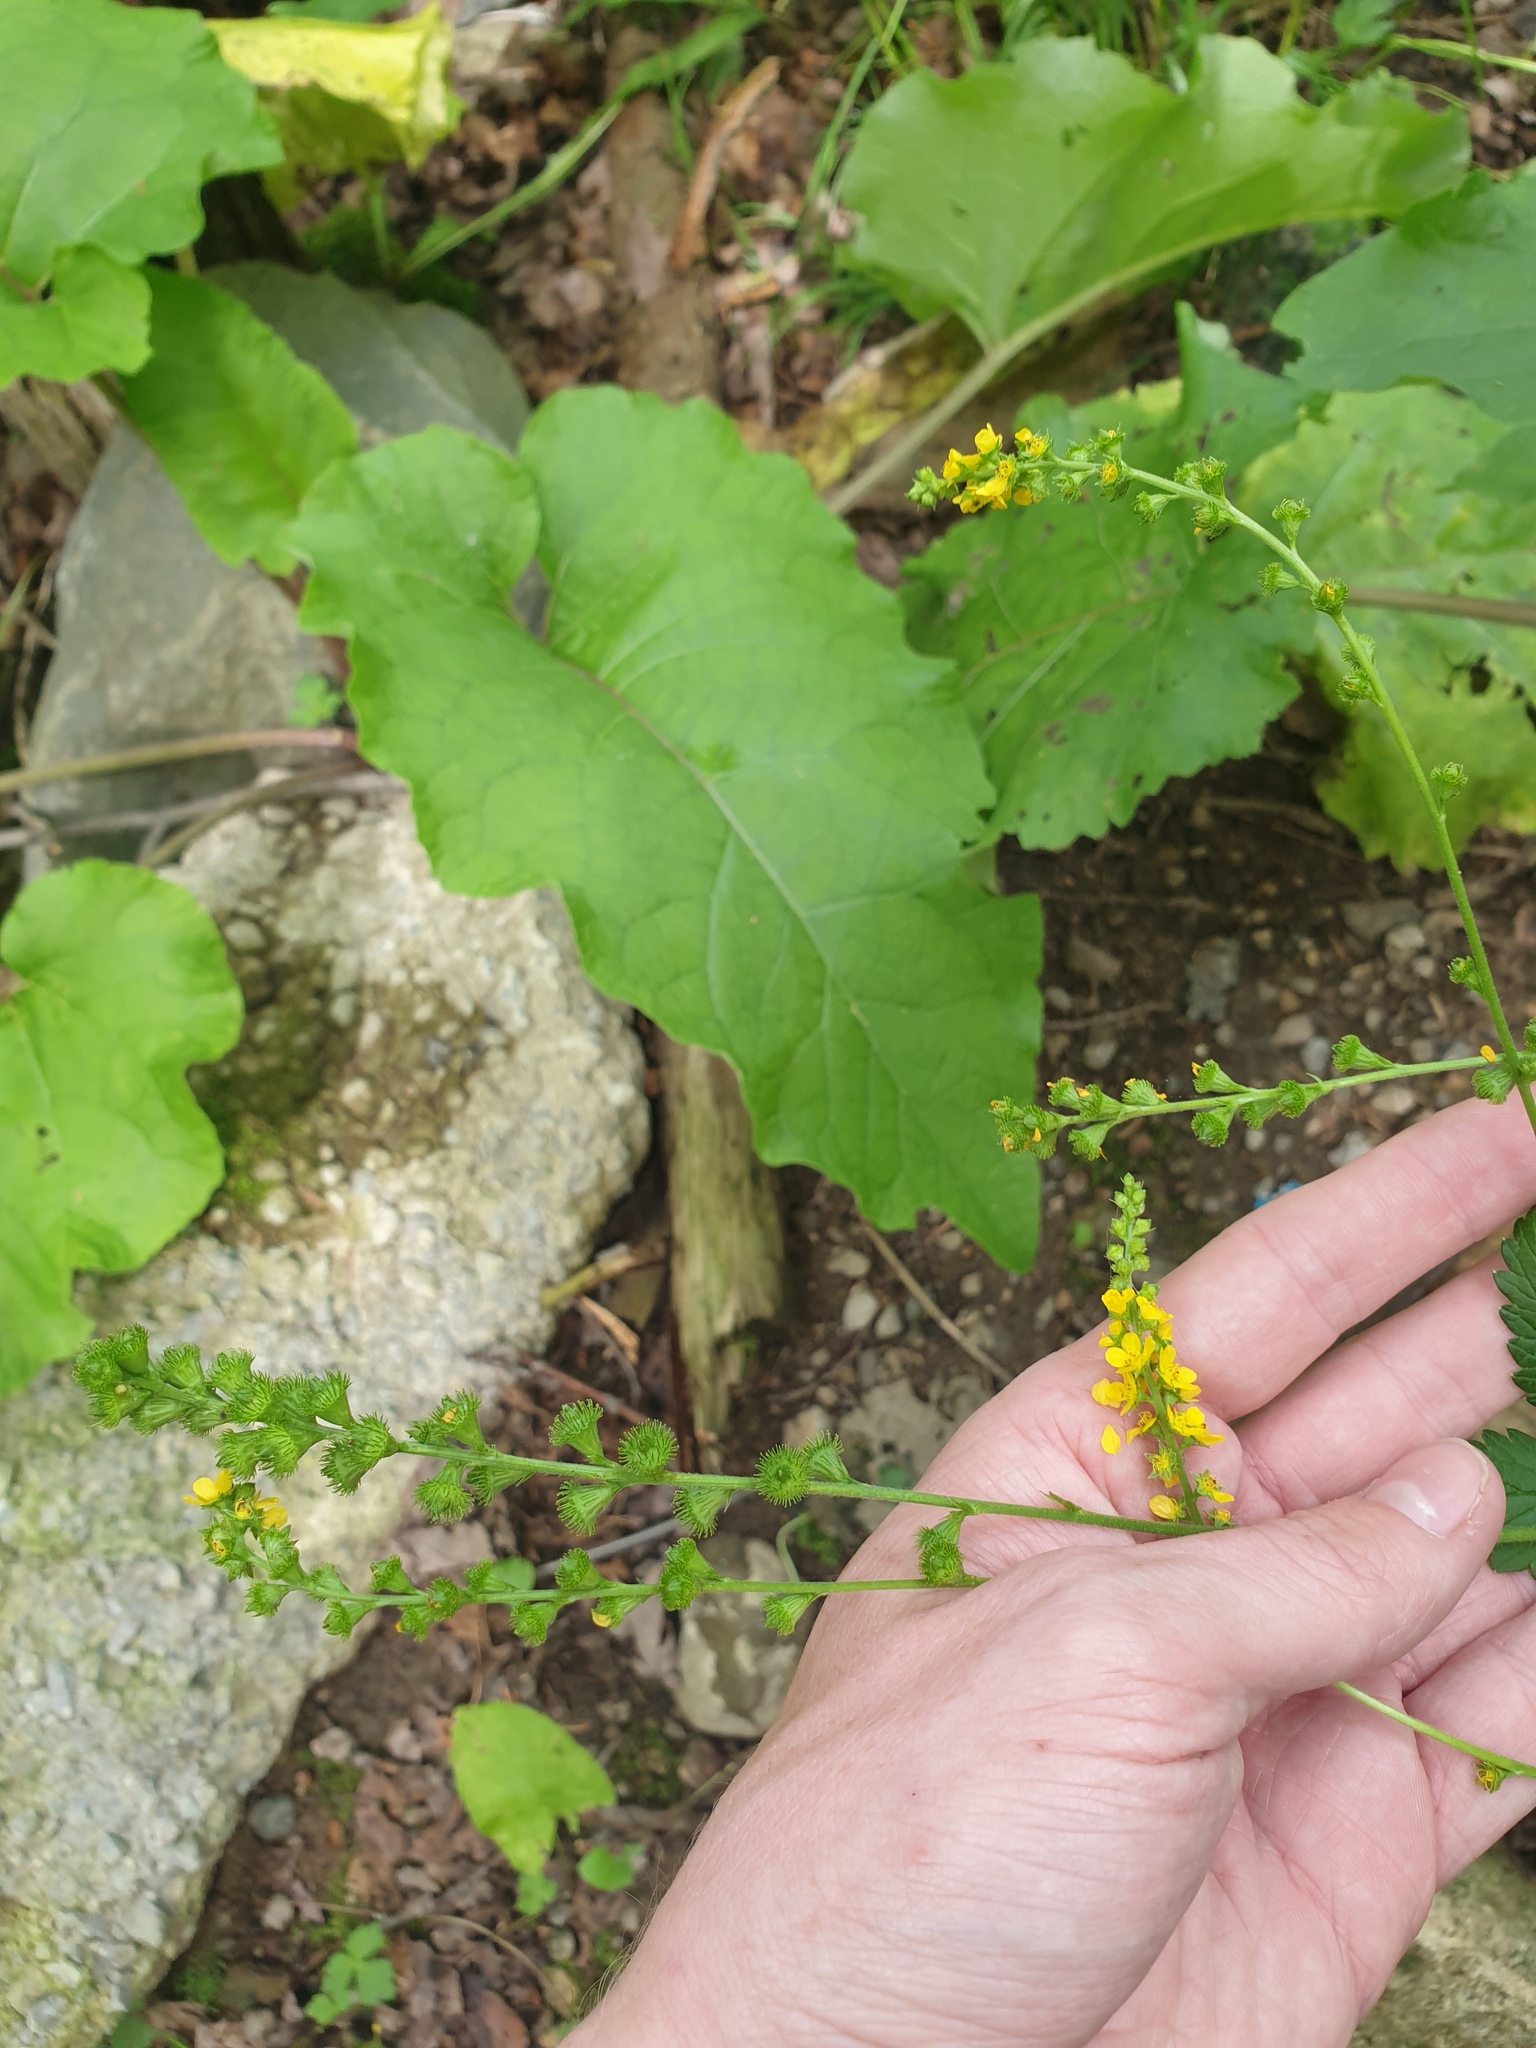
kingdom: Plantae
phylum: Tracheophyta
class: Magnoliopsida
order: Rosales
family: Rosaceae
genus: Agrimonia
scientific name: Agrimonia gryposepala
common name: Common agrimony
